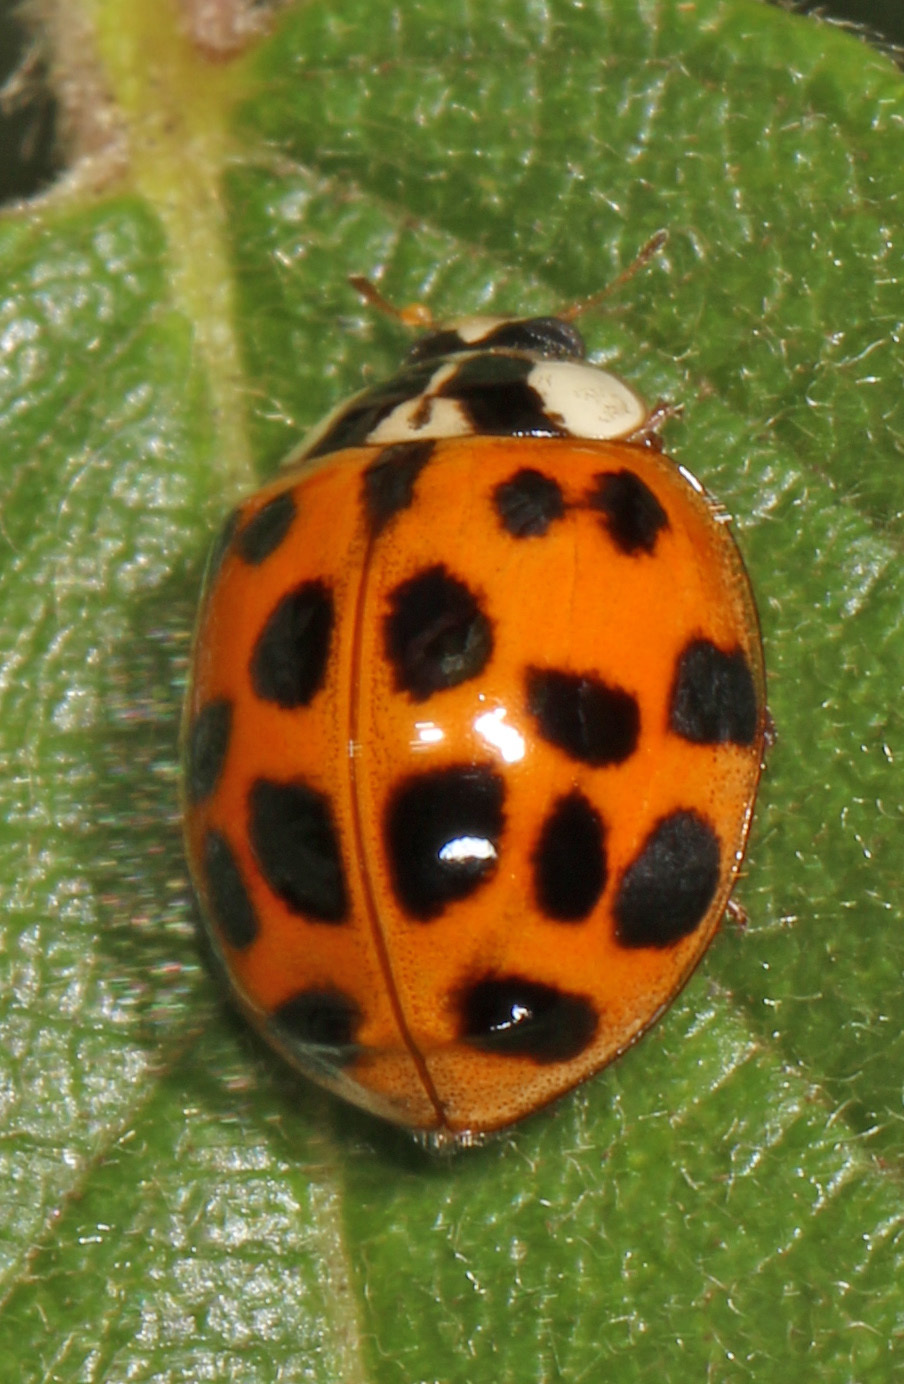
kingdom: Animalia
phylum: Arthropoda
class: Insecta
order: Coleoptera
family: Coccinellidae
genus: Harmonia
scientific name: Harmonia axyridis
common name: Harlequin ladybird
